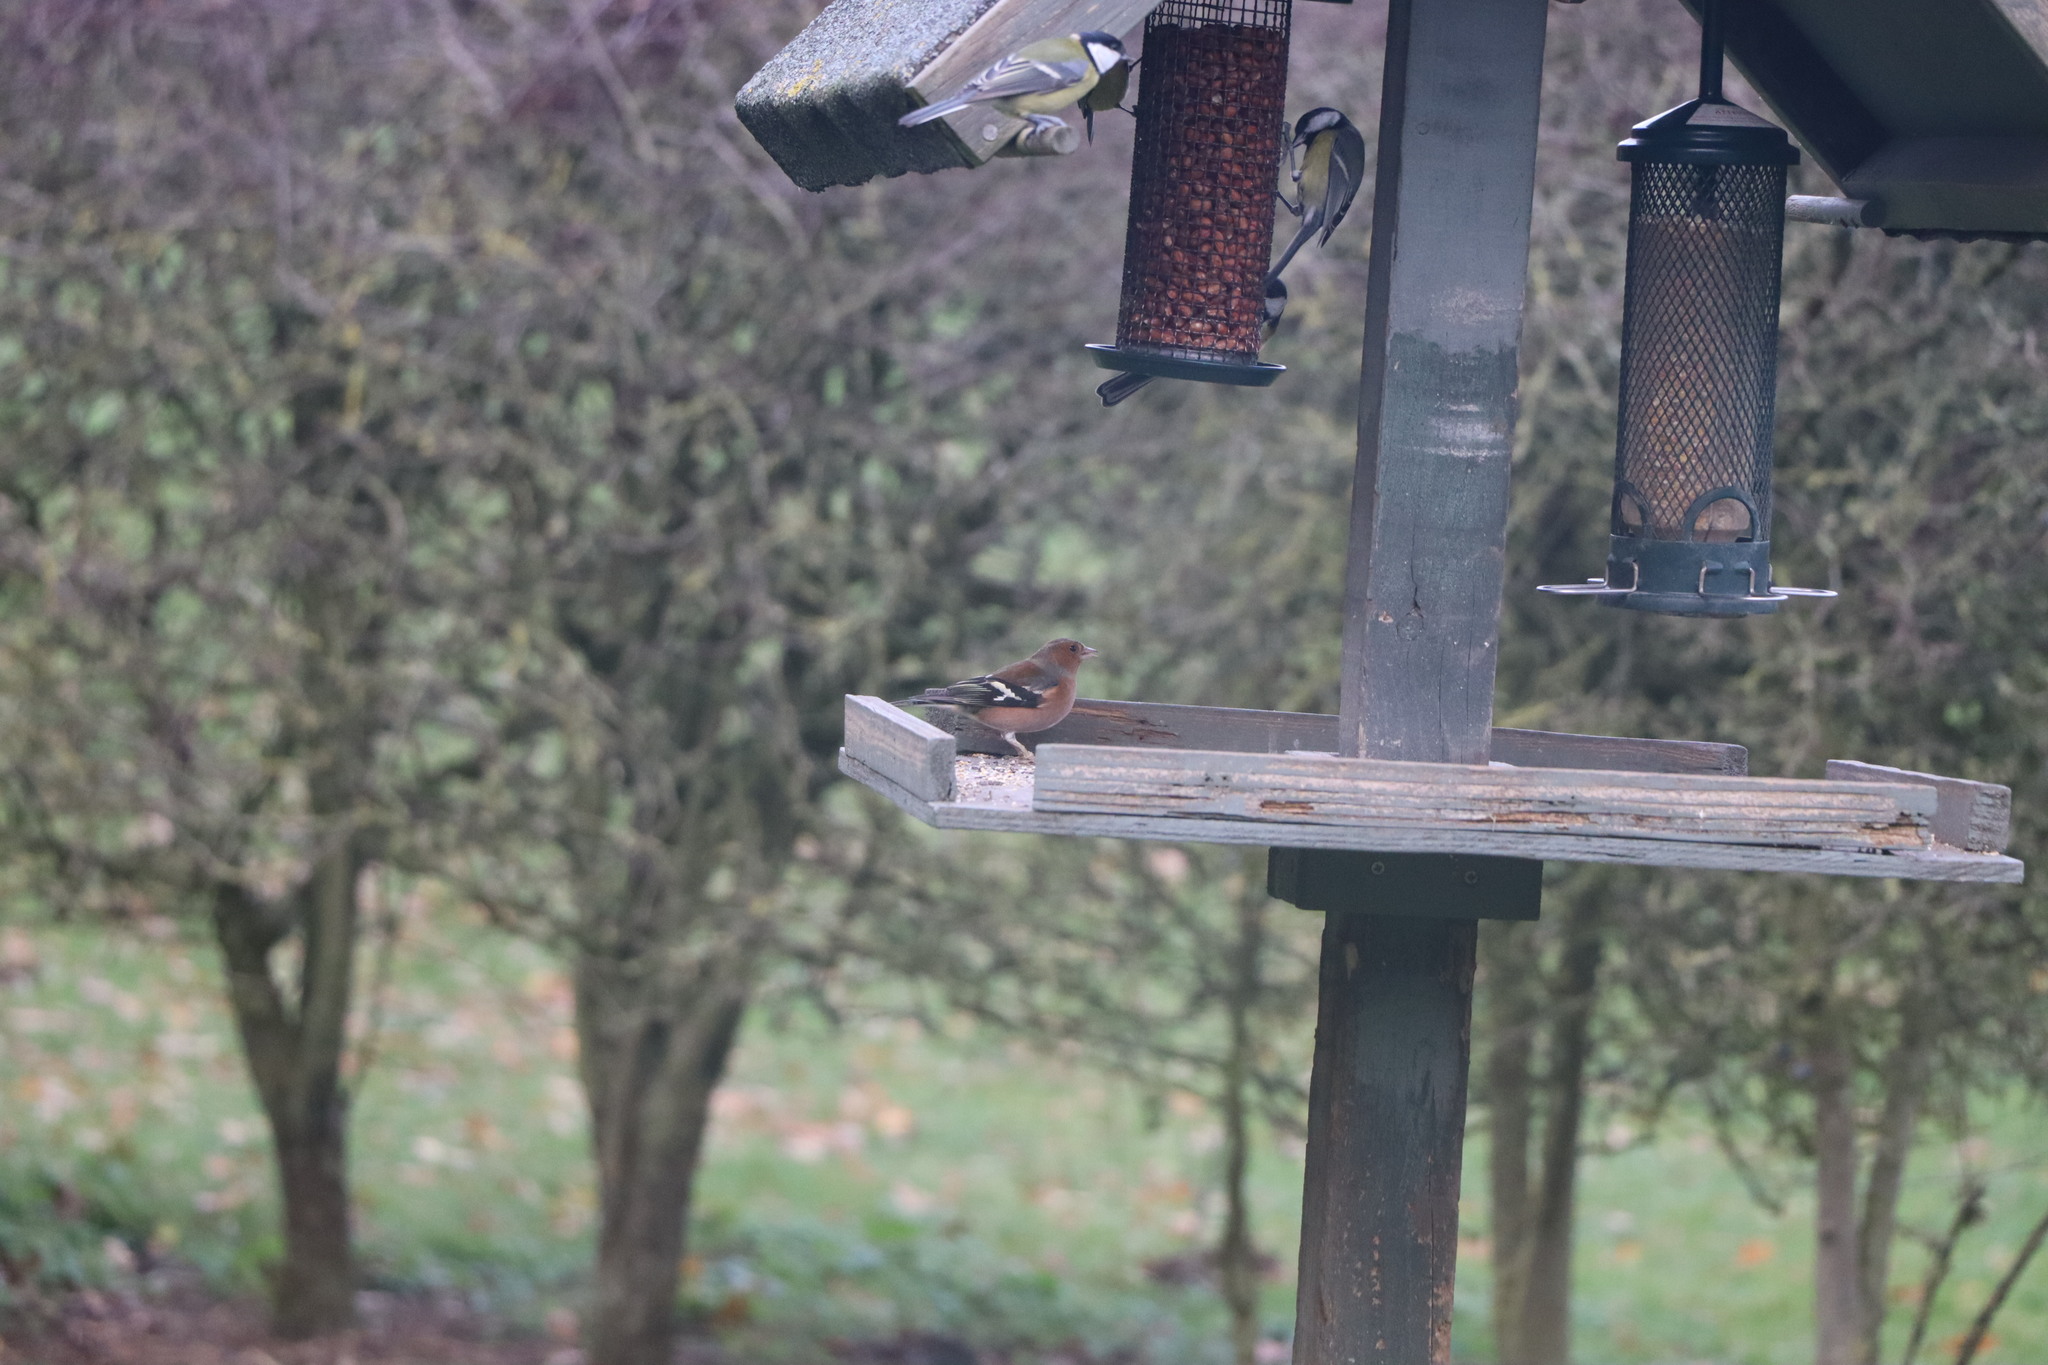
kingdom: Animalia
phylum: Chordata
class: Aves
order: Passeriformes
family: Fringillidae
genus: Fringilla
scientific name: Fringilla coelebs
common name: Common chaffinch
